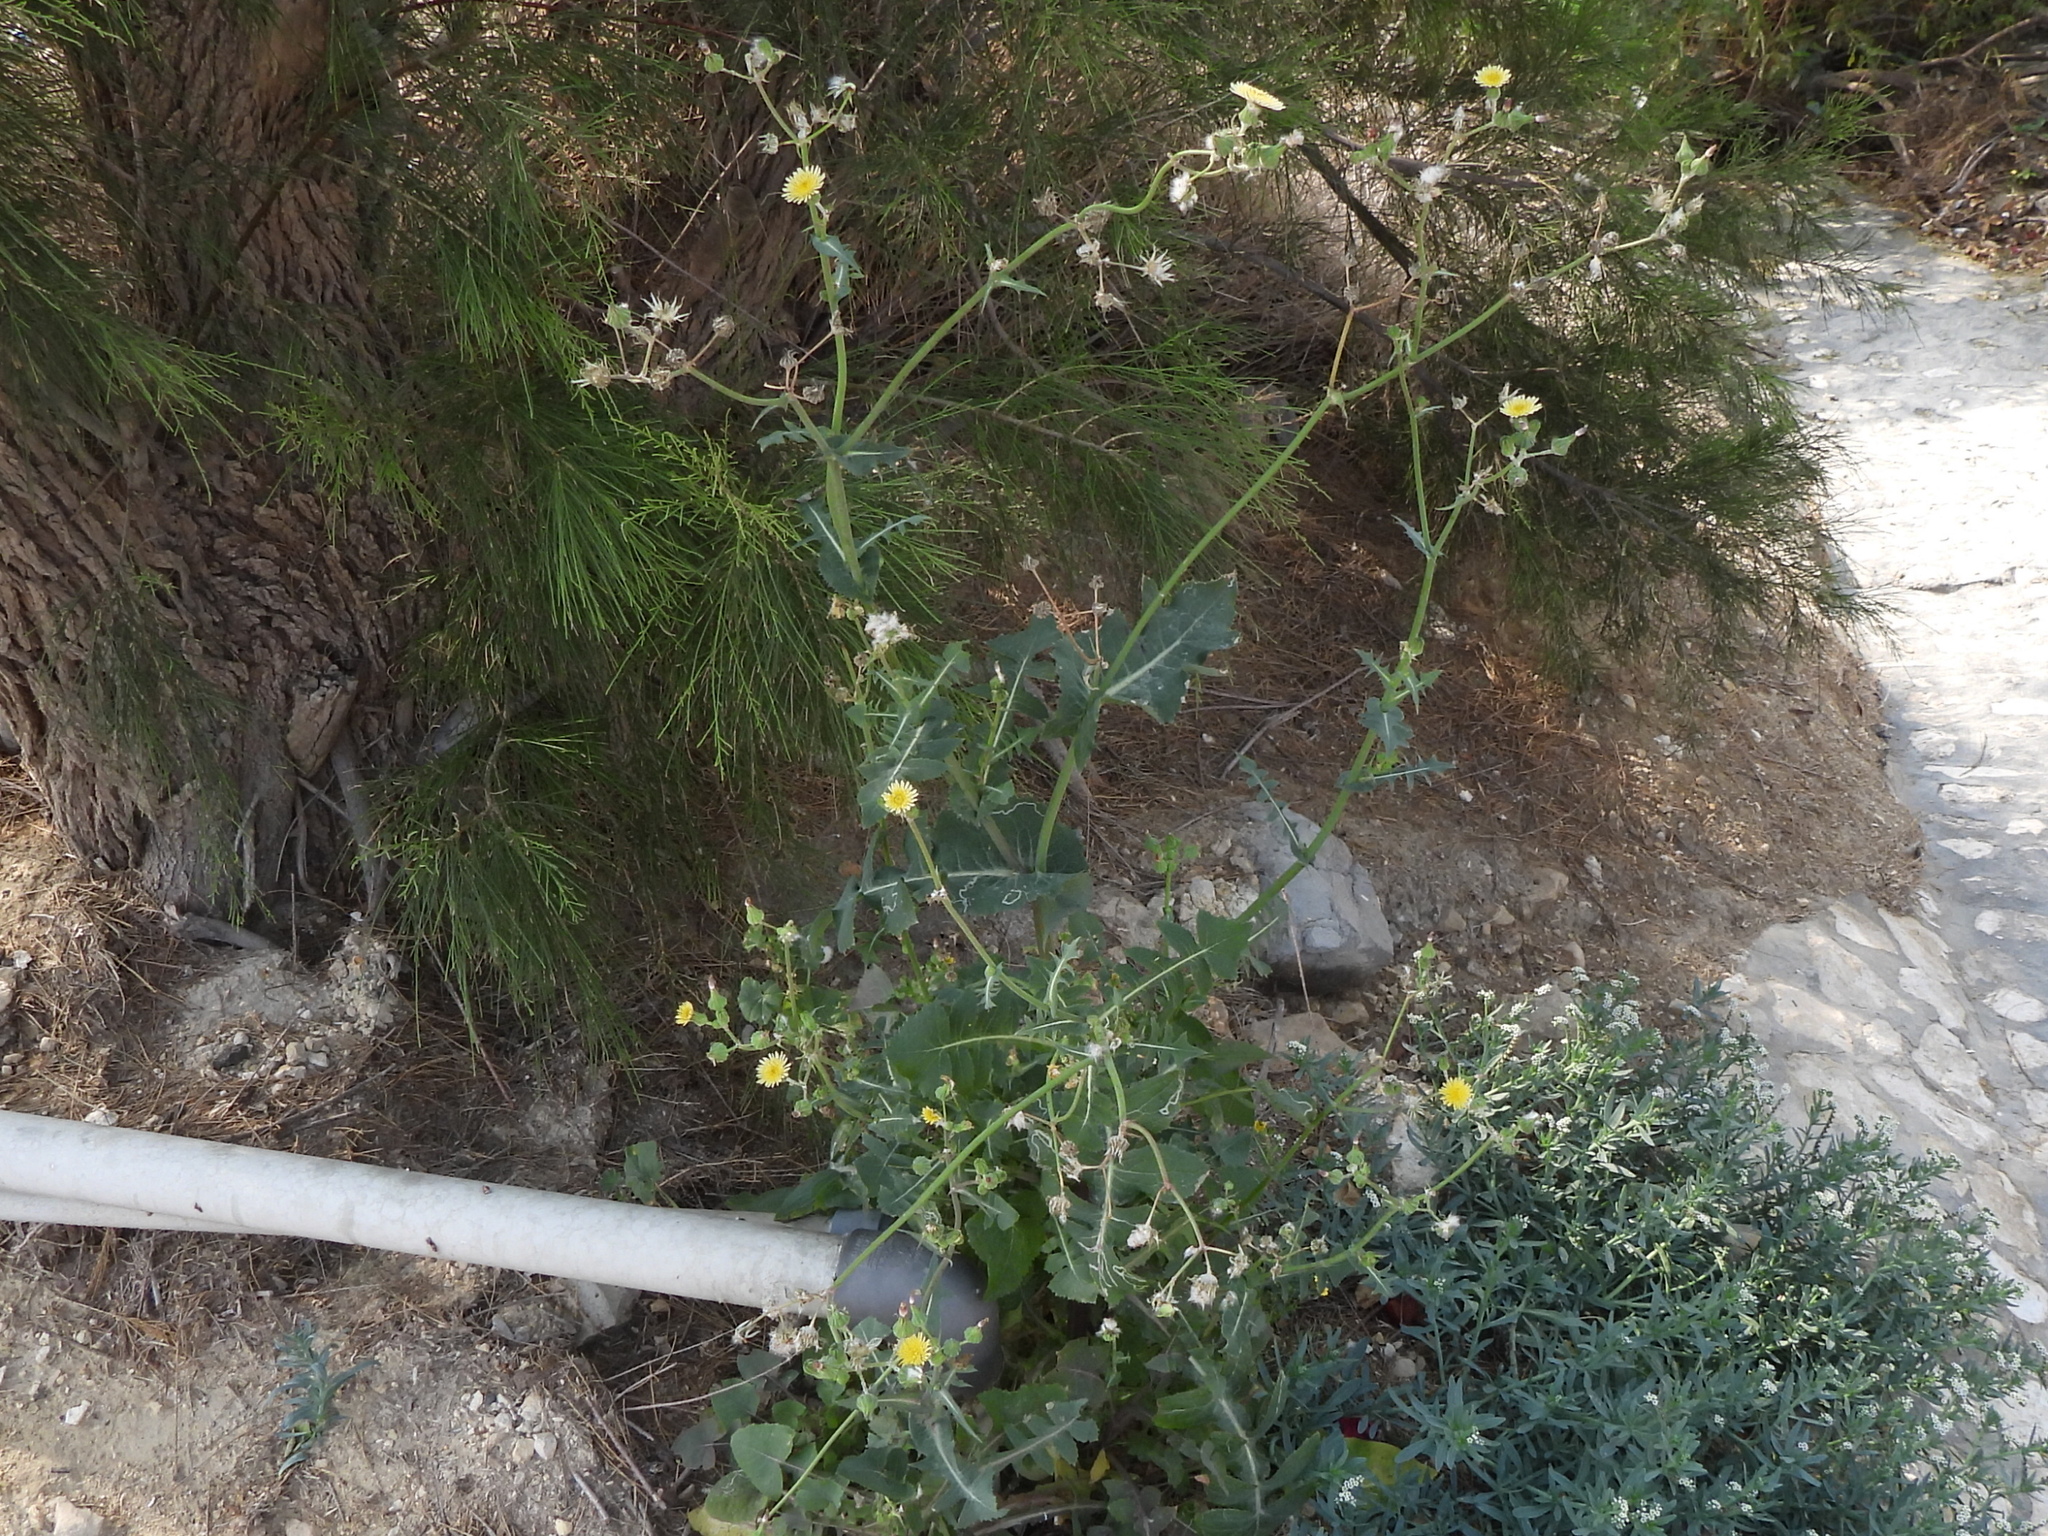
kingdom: Plantae
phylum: Tracheophyta
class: Magnoliopsida
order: Asterales
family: Asteraceae
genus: Sonchus
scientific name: Sonchus oleraceus
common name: Common sowthistle
